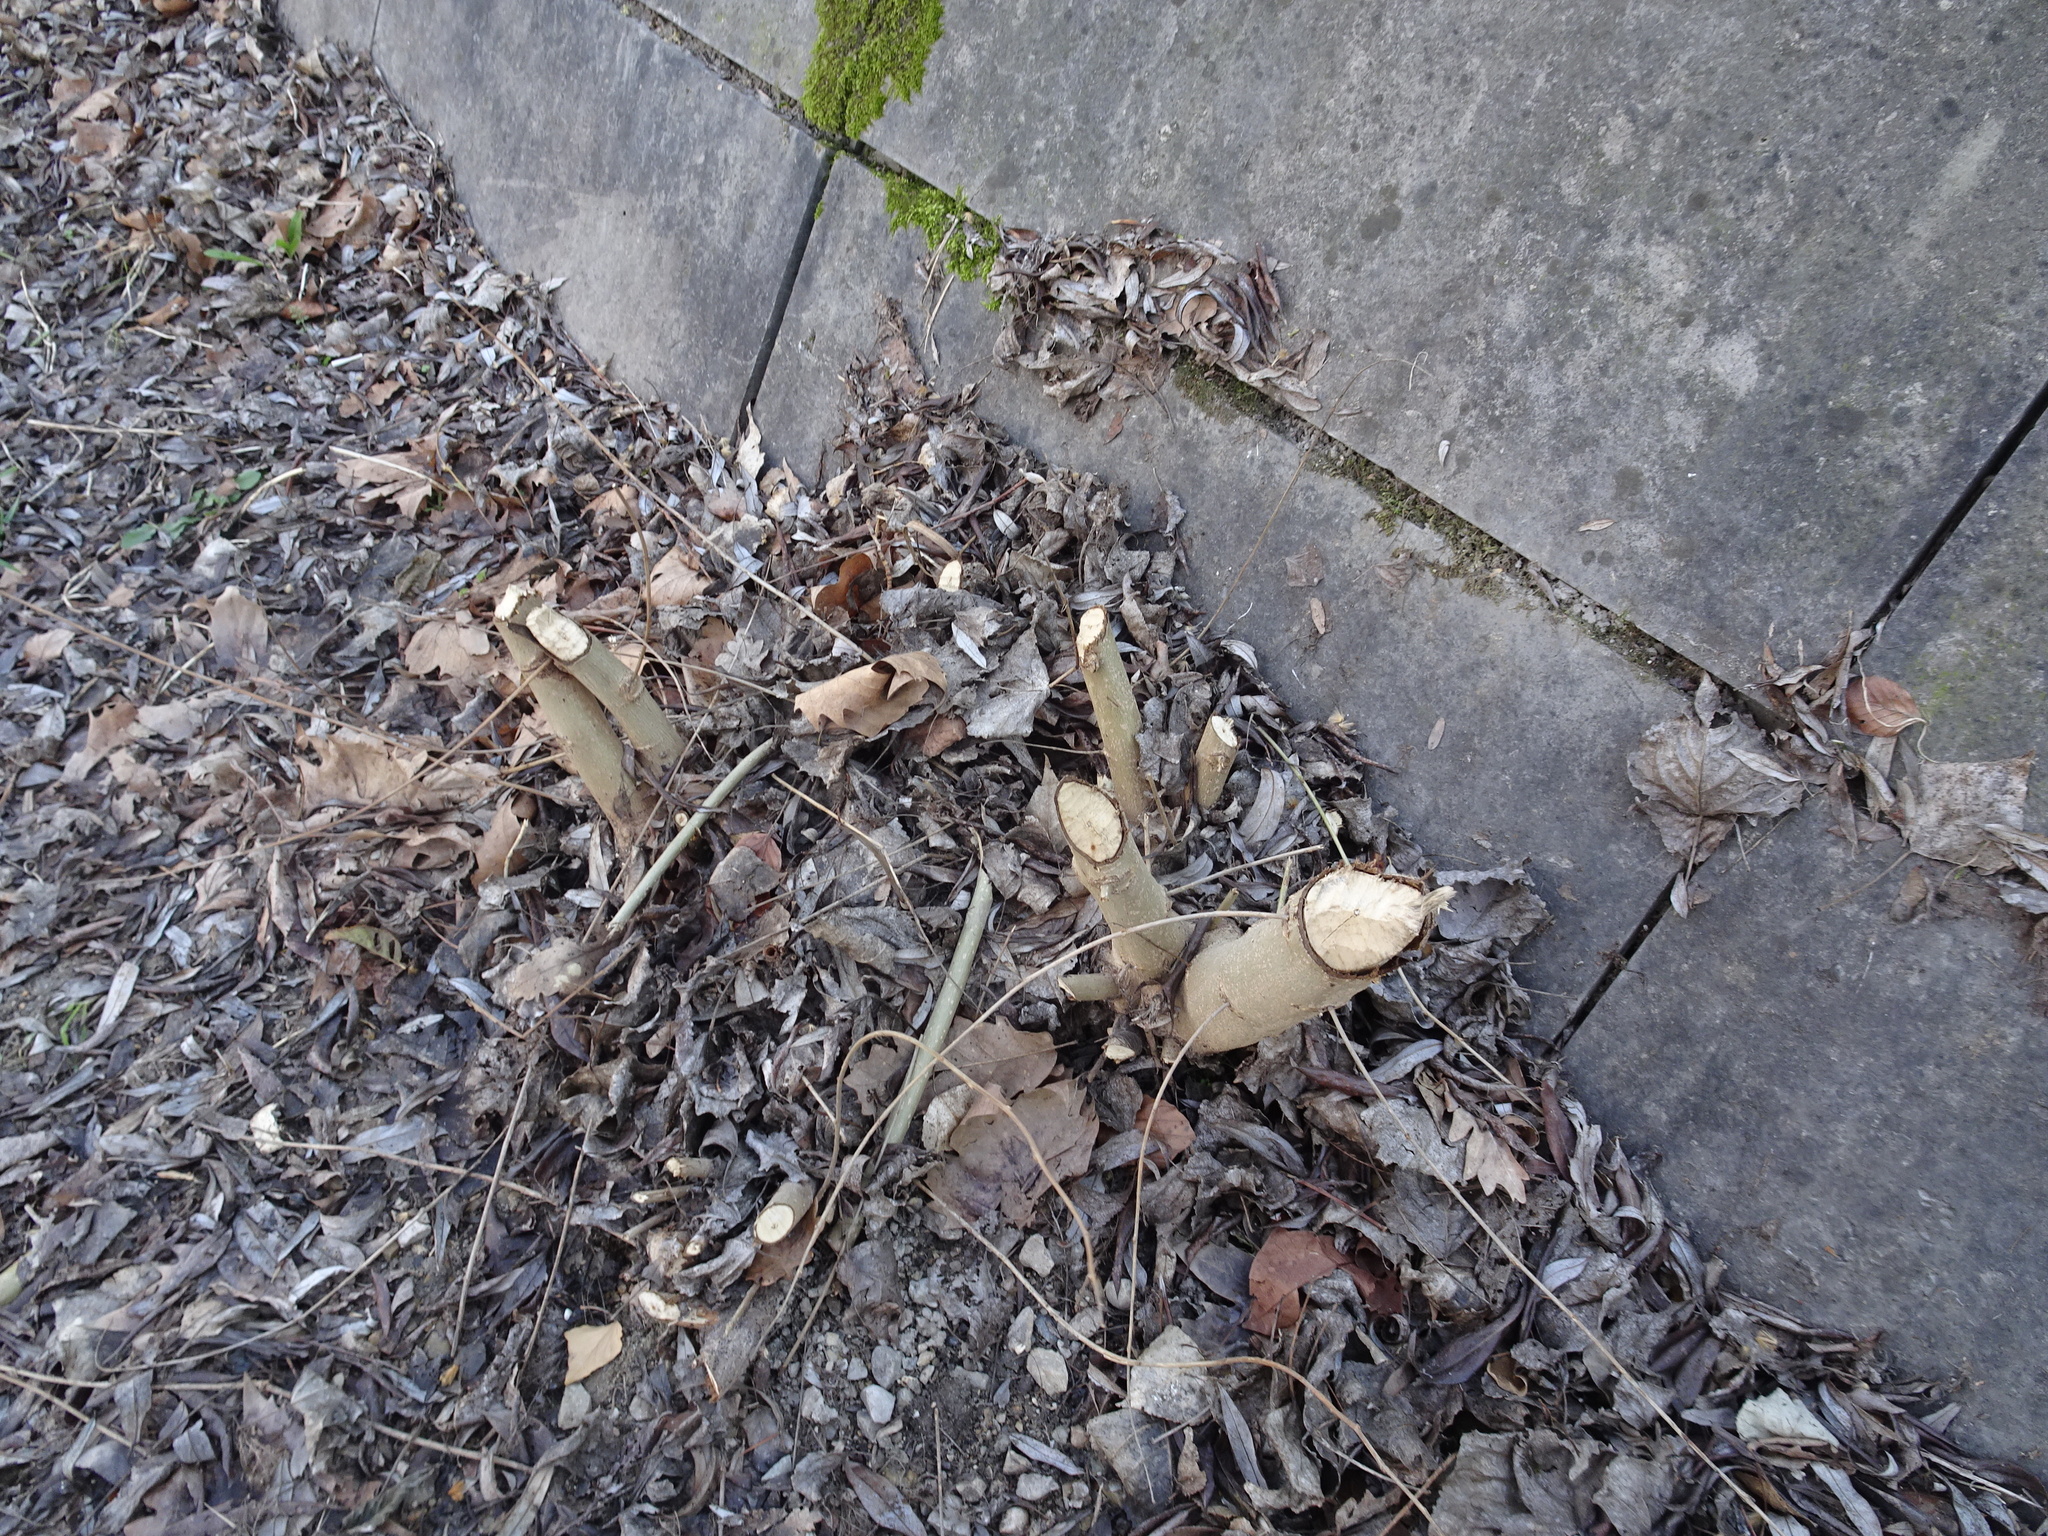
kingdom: Animalia
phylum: Chordata
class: Mammalia
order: Rodentia
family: Castoridae
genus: Castor
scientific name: Castor fiber
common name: Eurasian beaver
